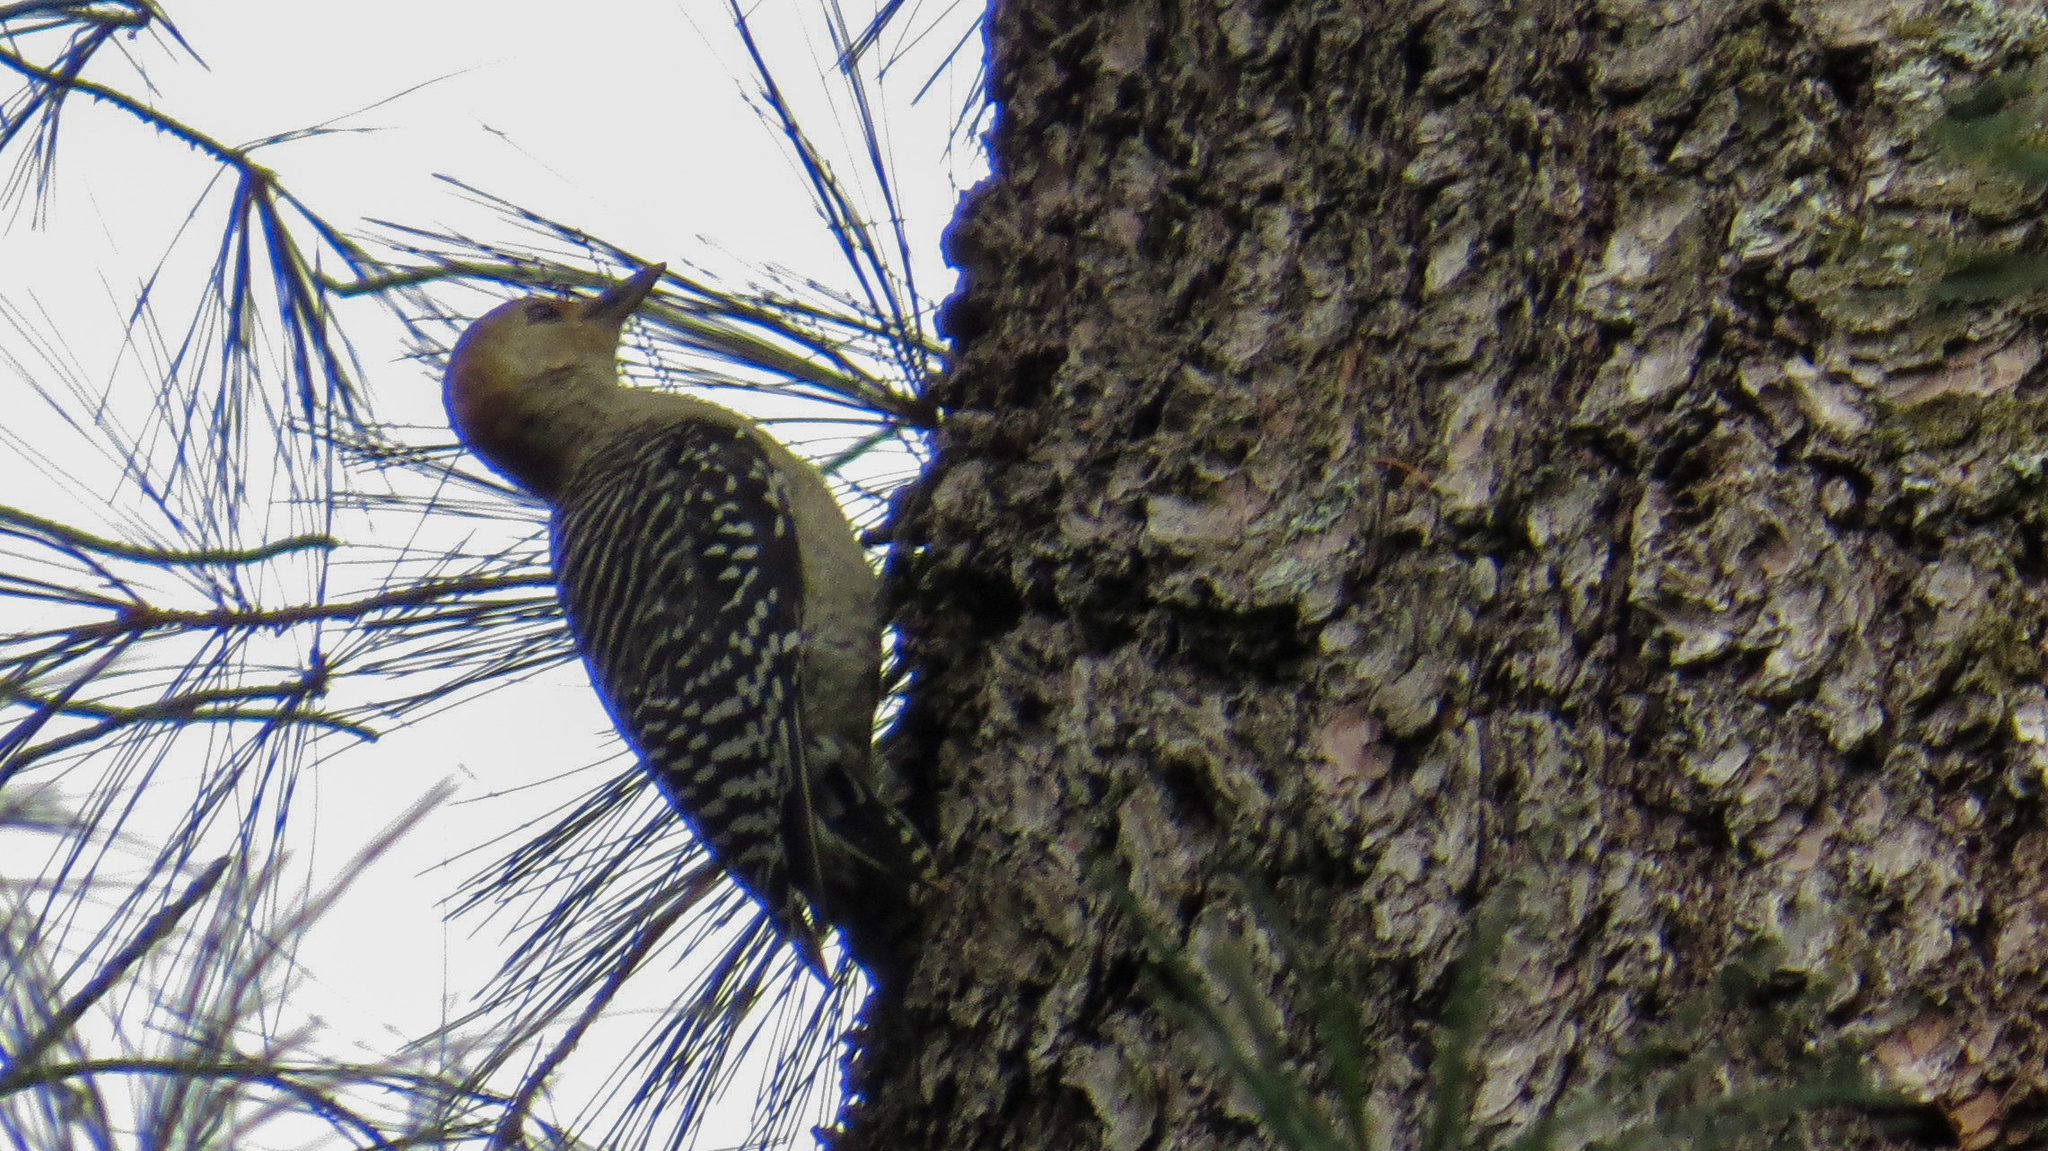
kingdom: Animalia
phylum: Chordata
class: Aves
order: Piciformes
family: Picidae
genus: Melanerpes
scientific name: Melanerpes carolinus
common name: Red-bellied woodpecker
